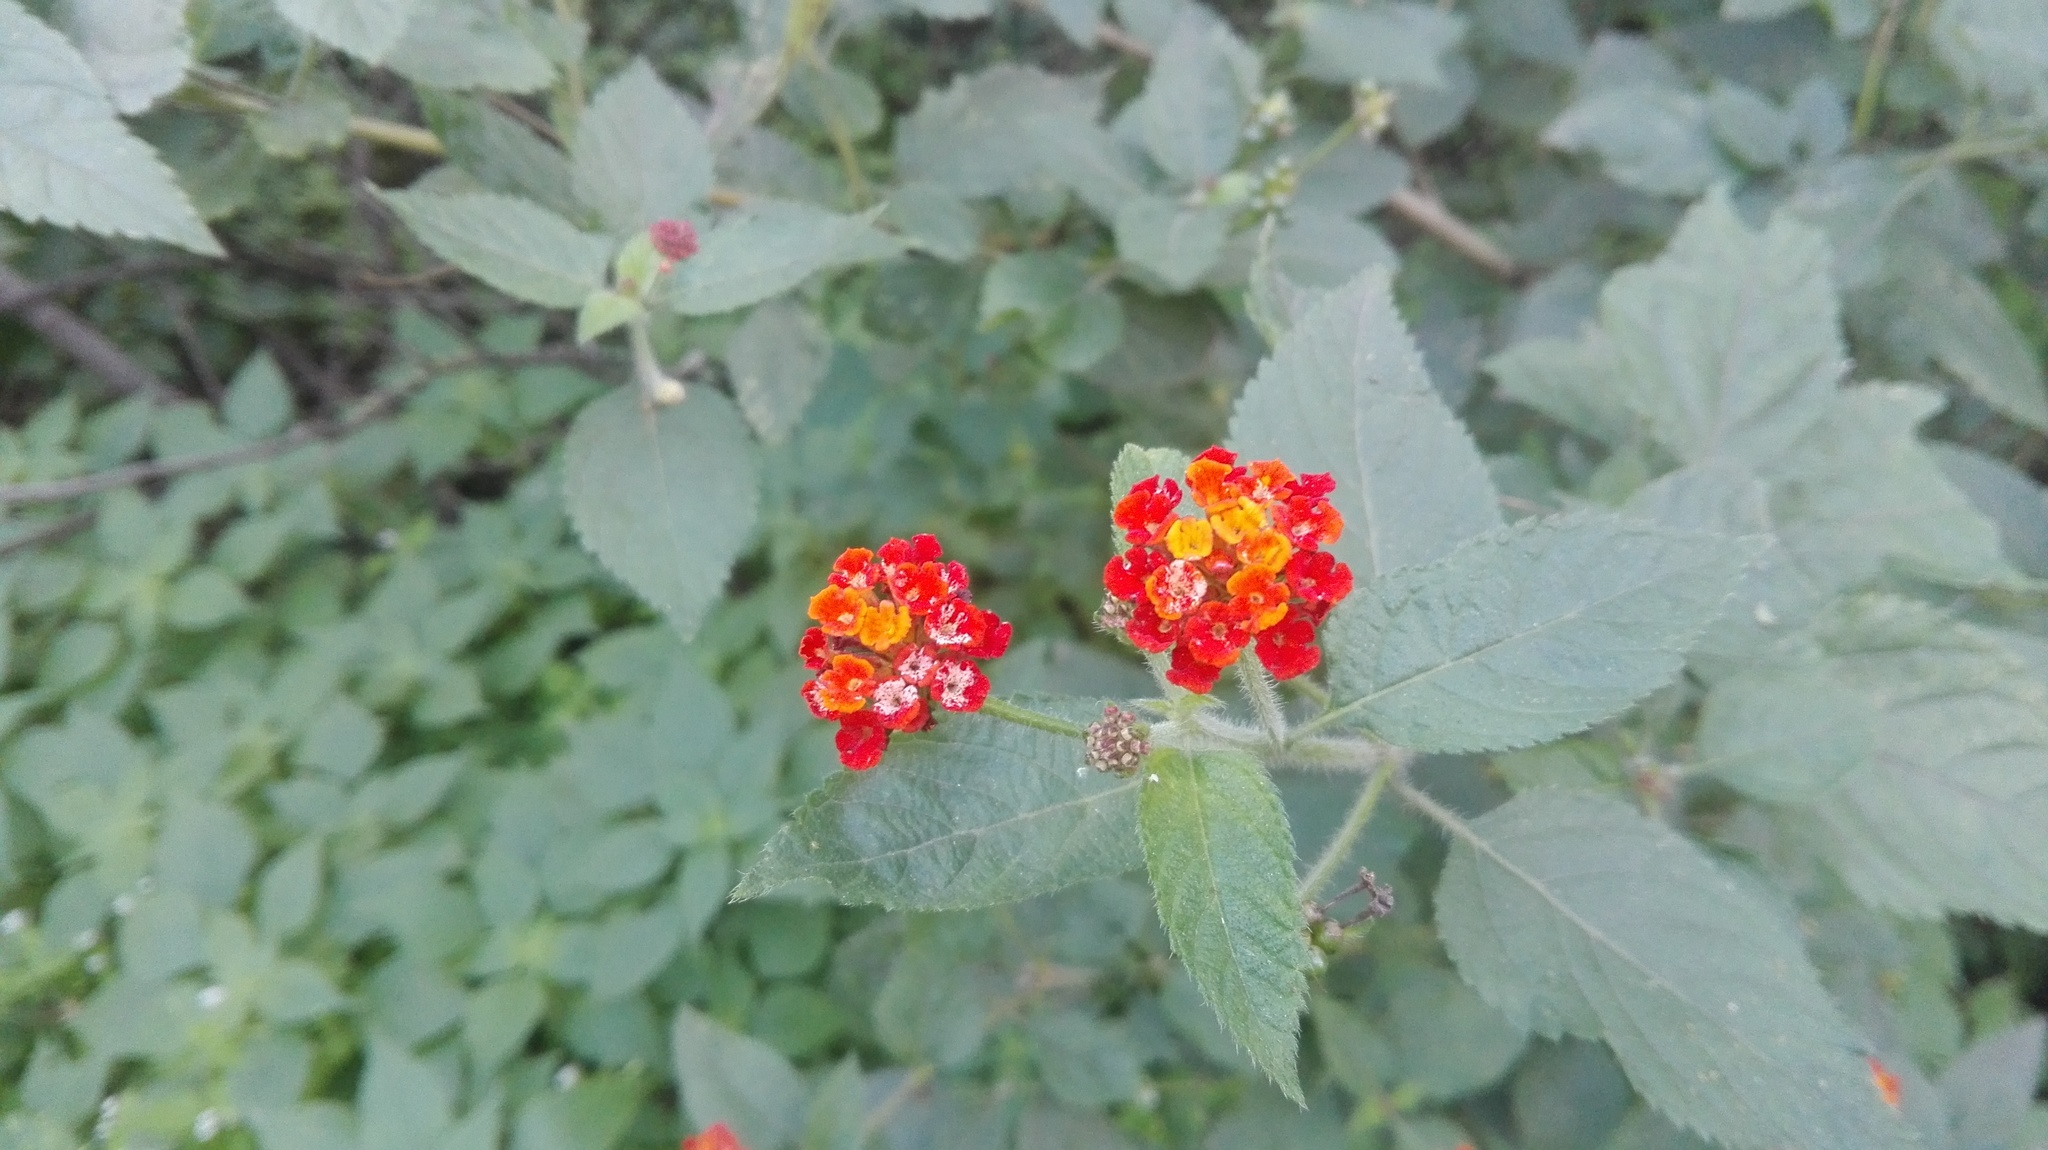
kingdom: Plantae
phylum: Tracheophyta
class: Magnoliopsida
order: Lamiales
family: Verbenaceae
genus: Lantana
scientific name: Lantana camara
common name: Lantana
